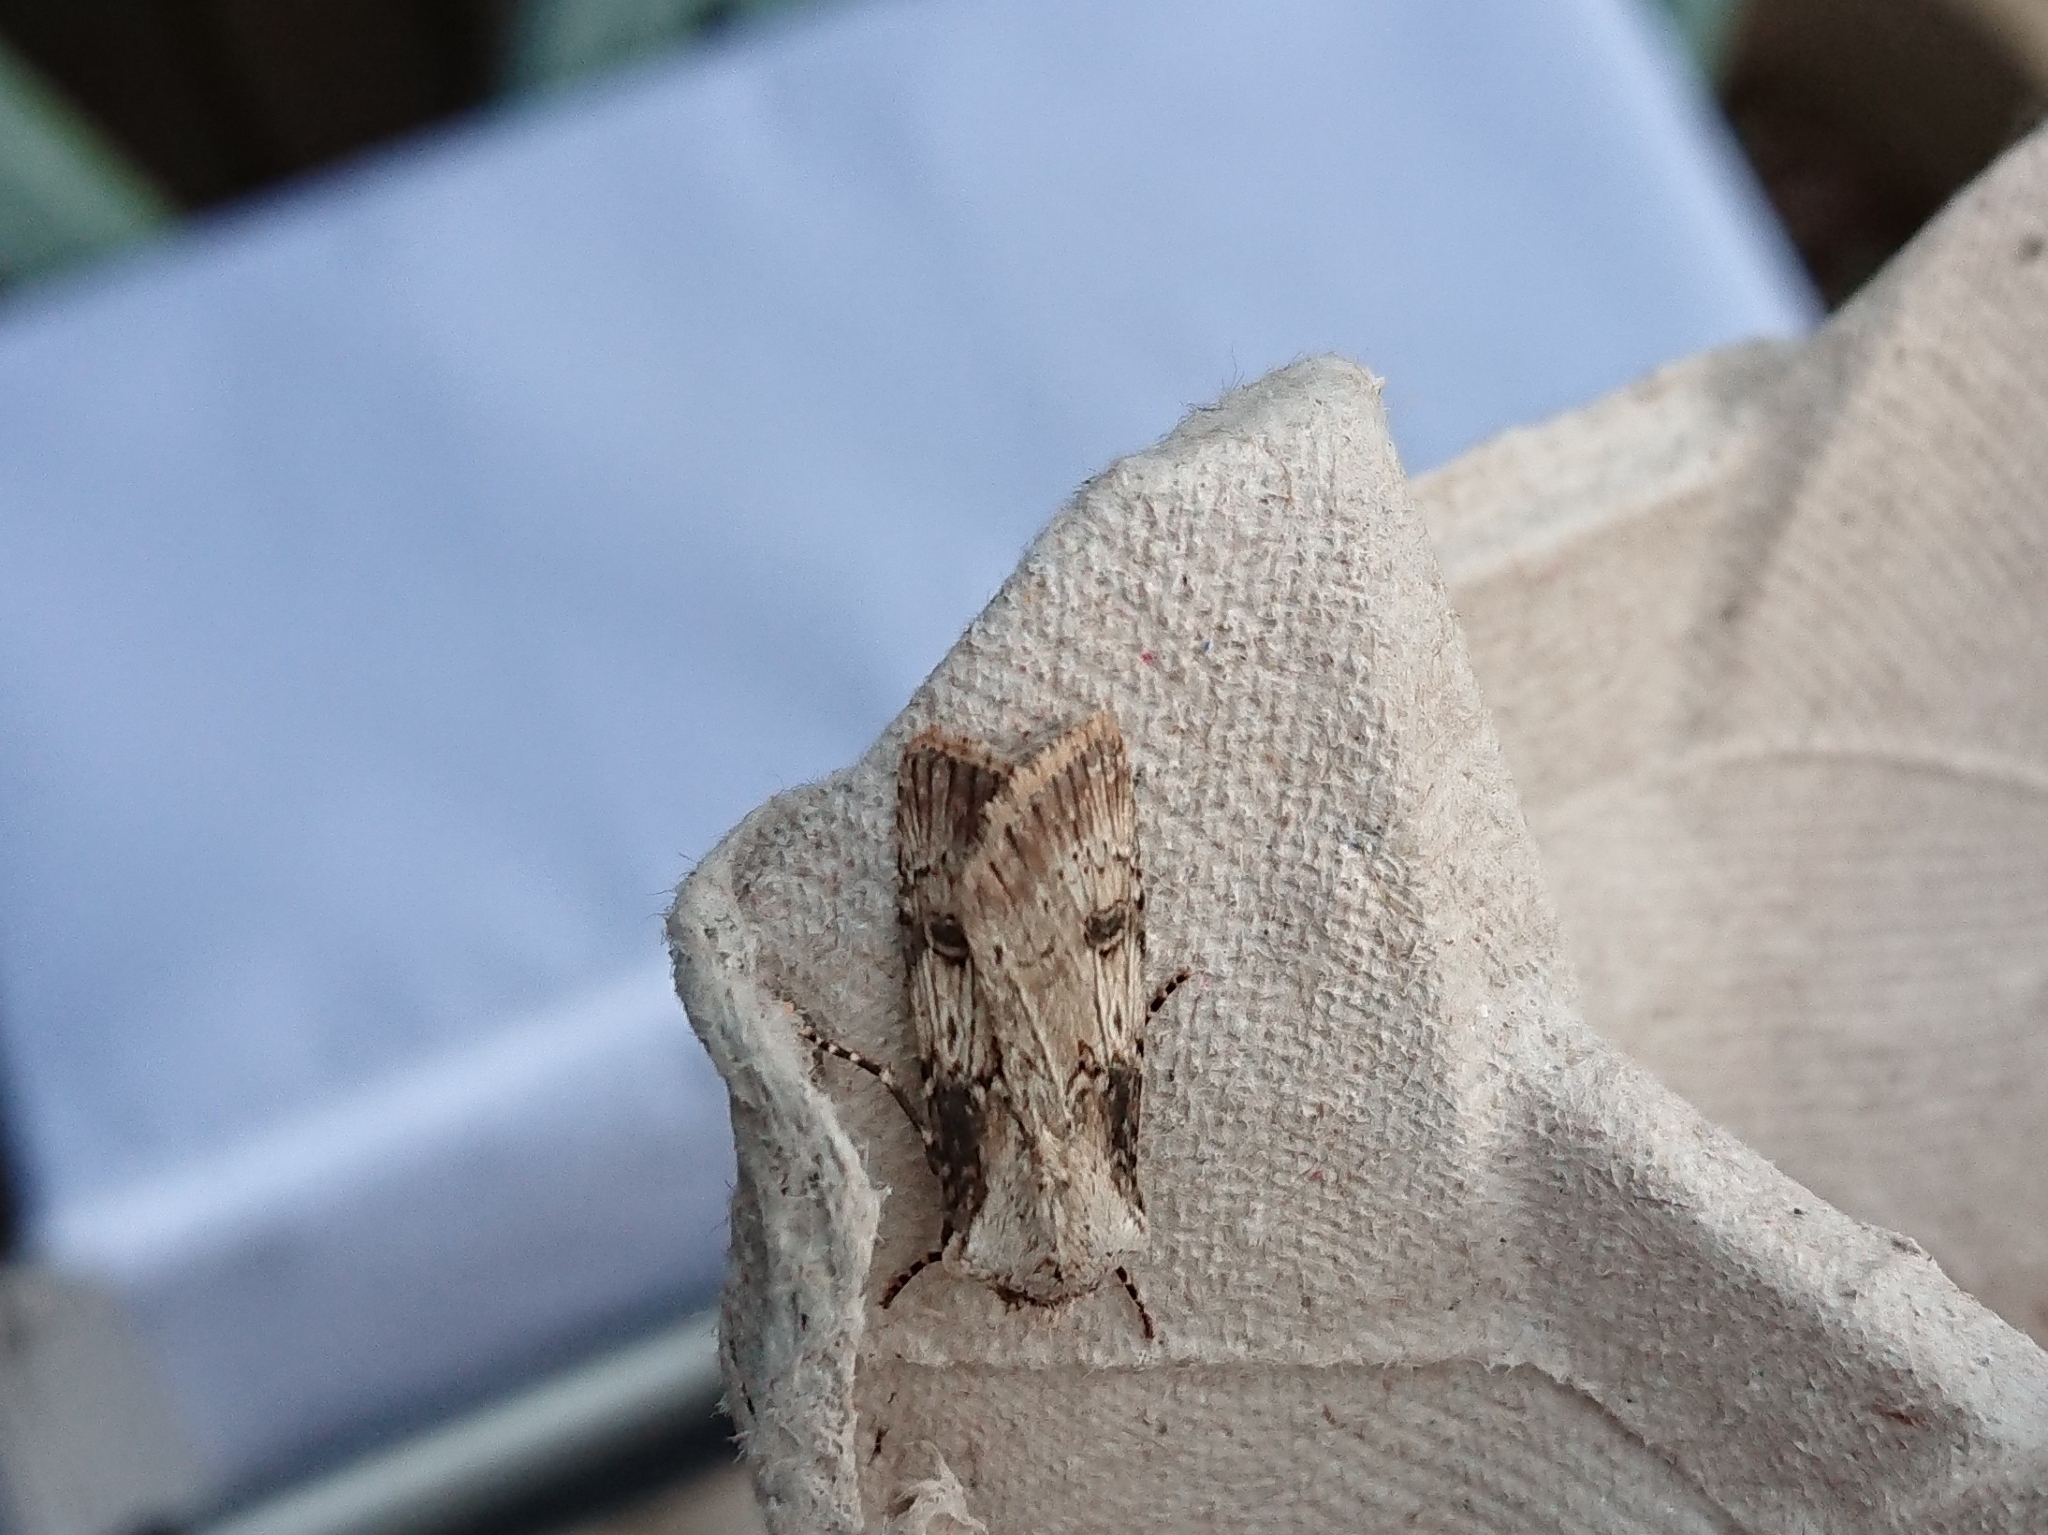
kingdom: Animalia
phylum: Arthropoda
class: Insecta
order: Lepidoptera
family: Noctuidae
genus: Agrotis
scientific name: Agrotis puta
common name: Shuttle-shaped dart
